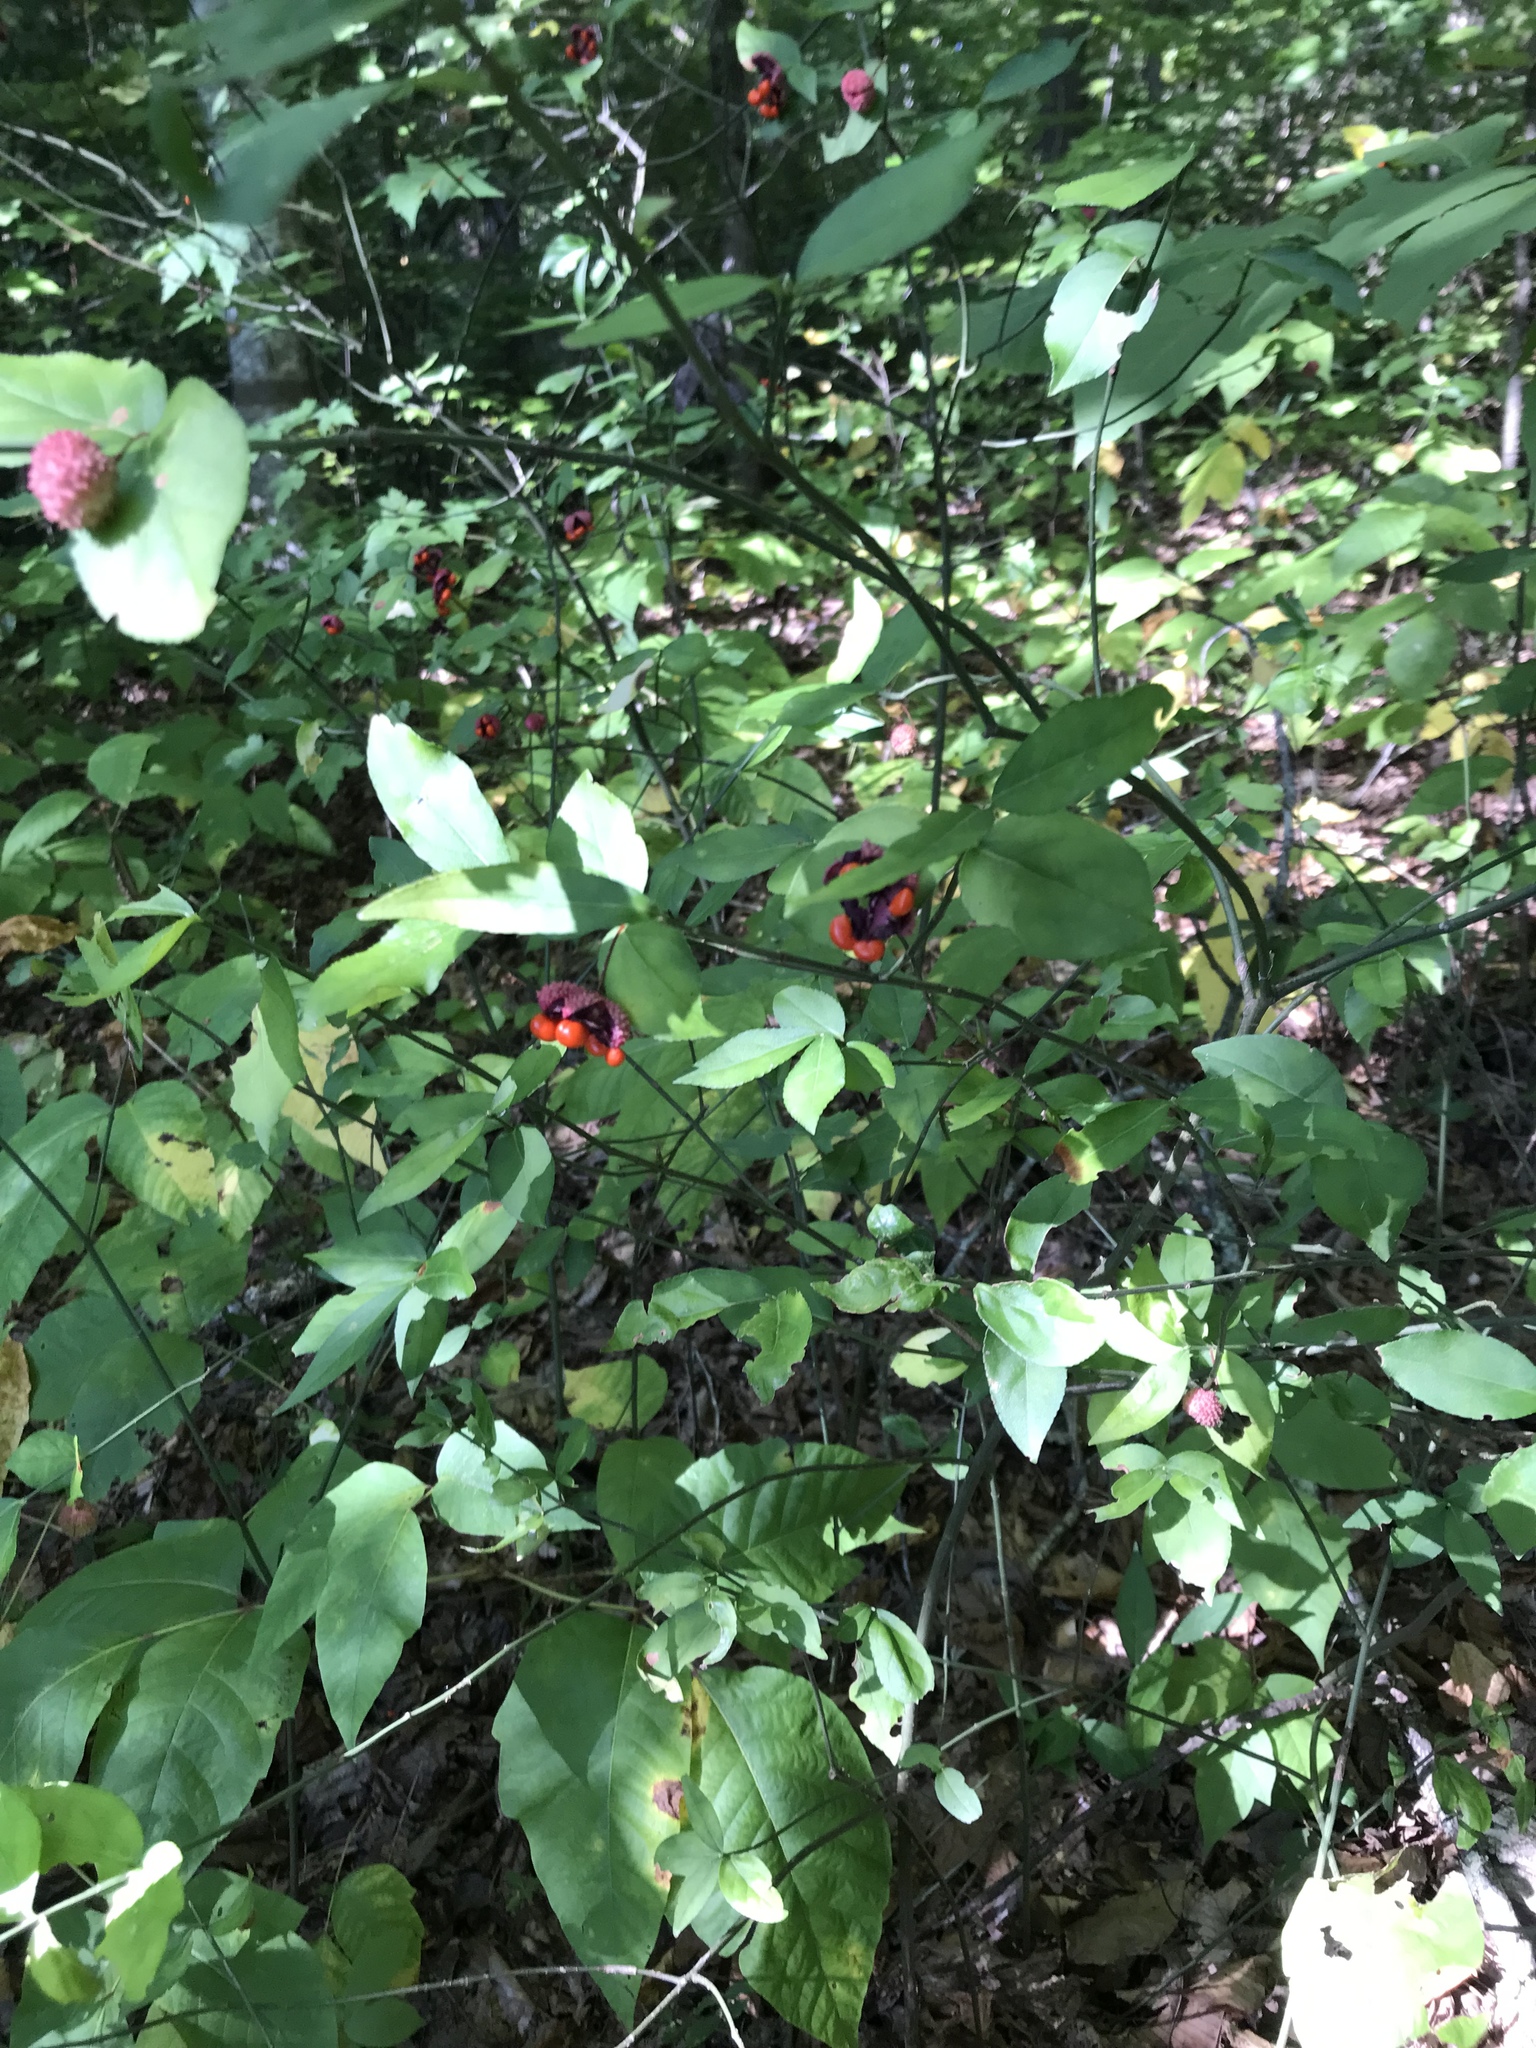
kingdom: Plantae
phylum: Tracheophyta
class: Magnoliopsida
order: Celastrales
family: Celastraceae
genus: Euonymus
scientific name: Euonymus americanus
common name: Bursting-heart
